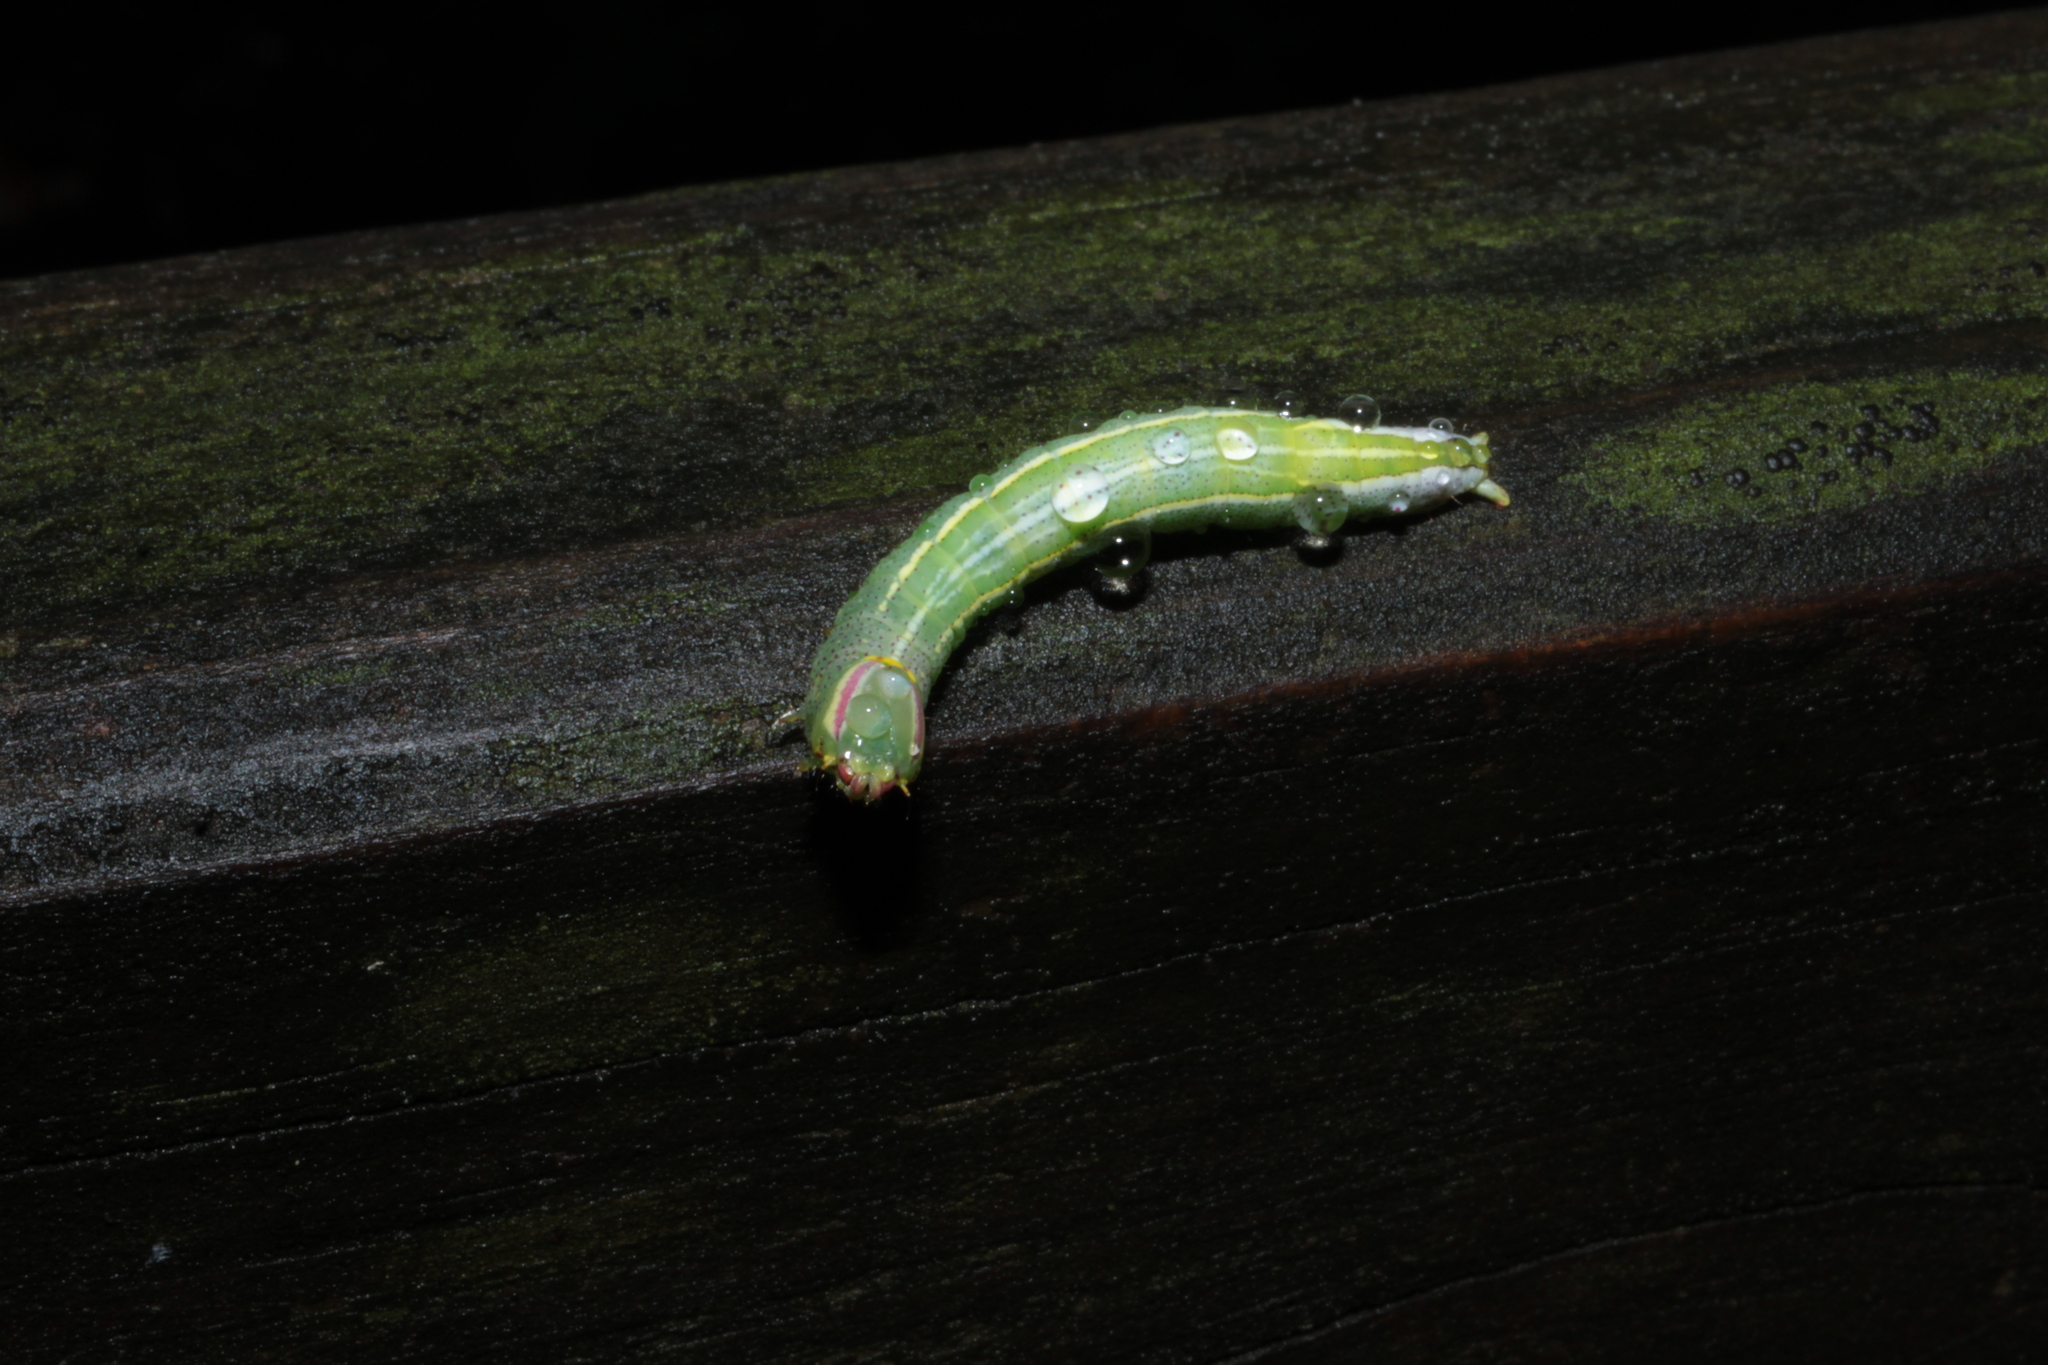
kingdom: Animalia
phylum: Arthropoda
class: Insecta
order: Lepidoptera
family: Notodontidae
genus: Disphragis
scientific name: Disphragis Cecrita guttivitta
